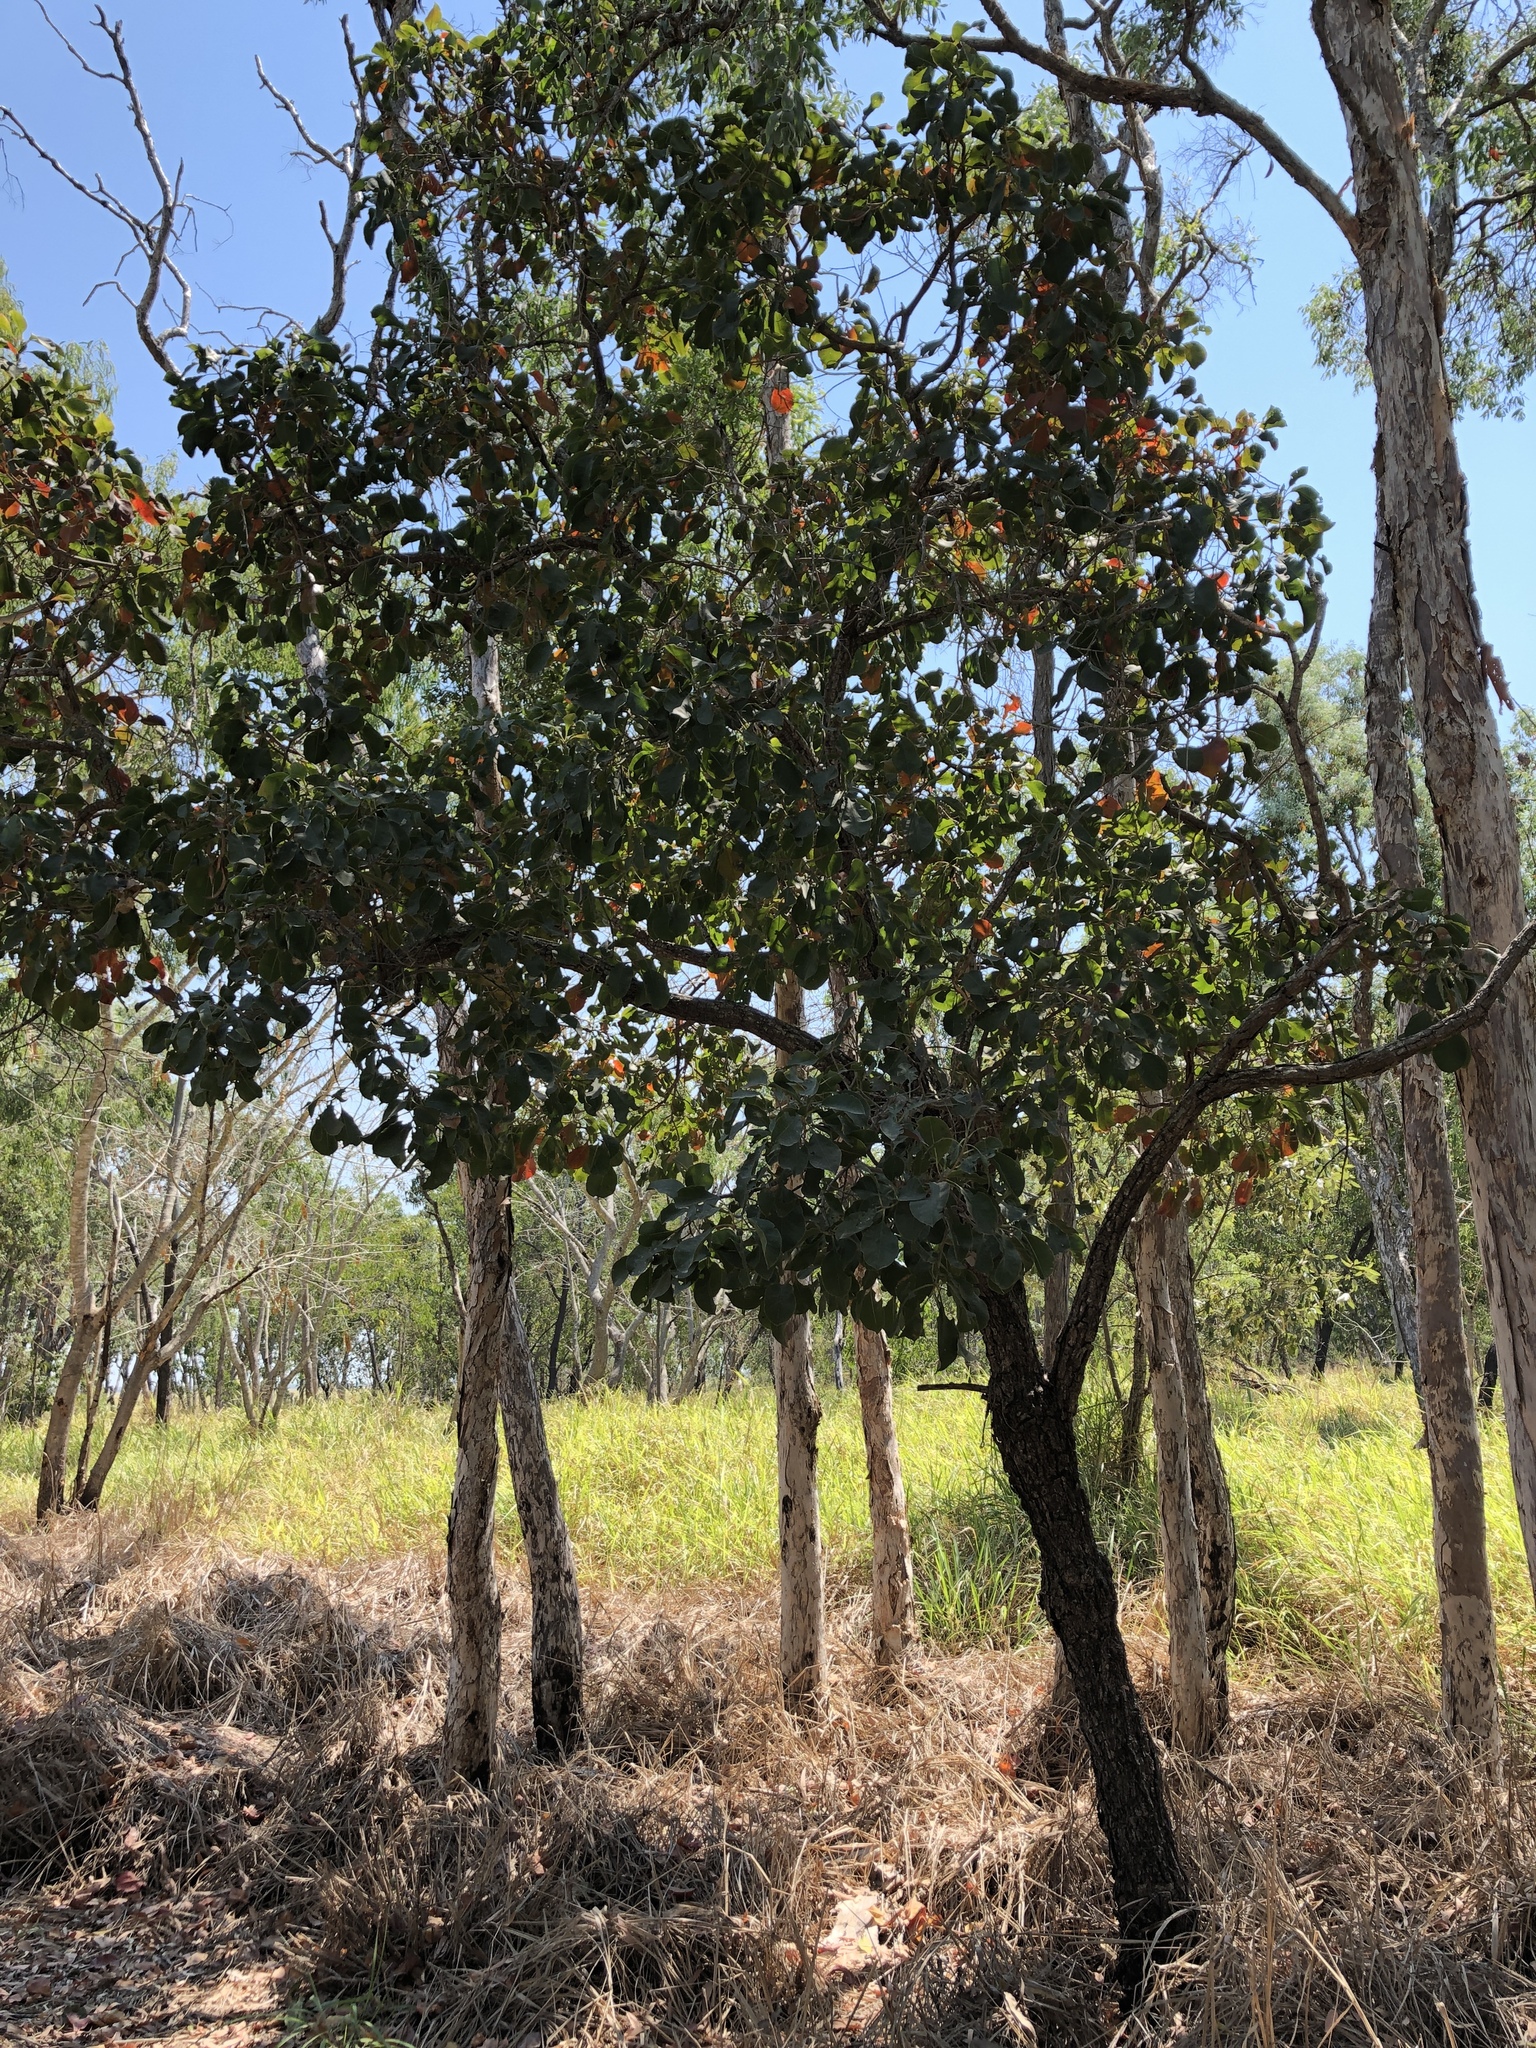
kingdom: Plantae
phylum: Tracheophyta
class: Magnoliopsida
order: Ericales
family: Lecythidaceae
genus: Planchonia
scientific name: Planchonia careya
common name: Cockatoo-apple
